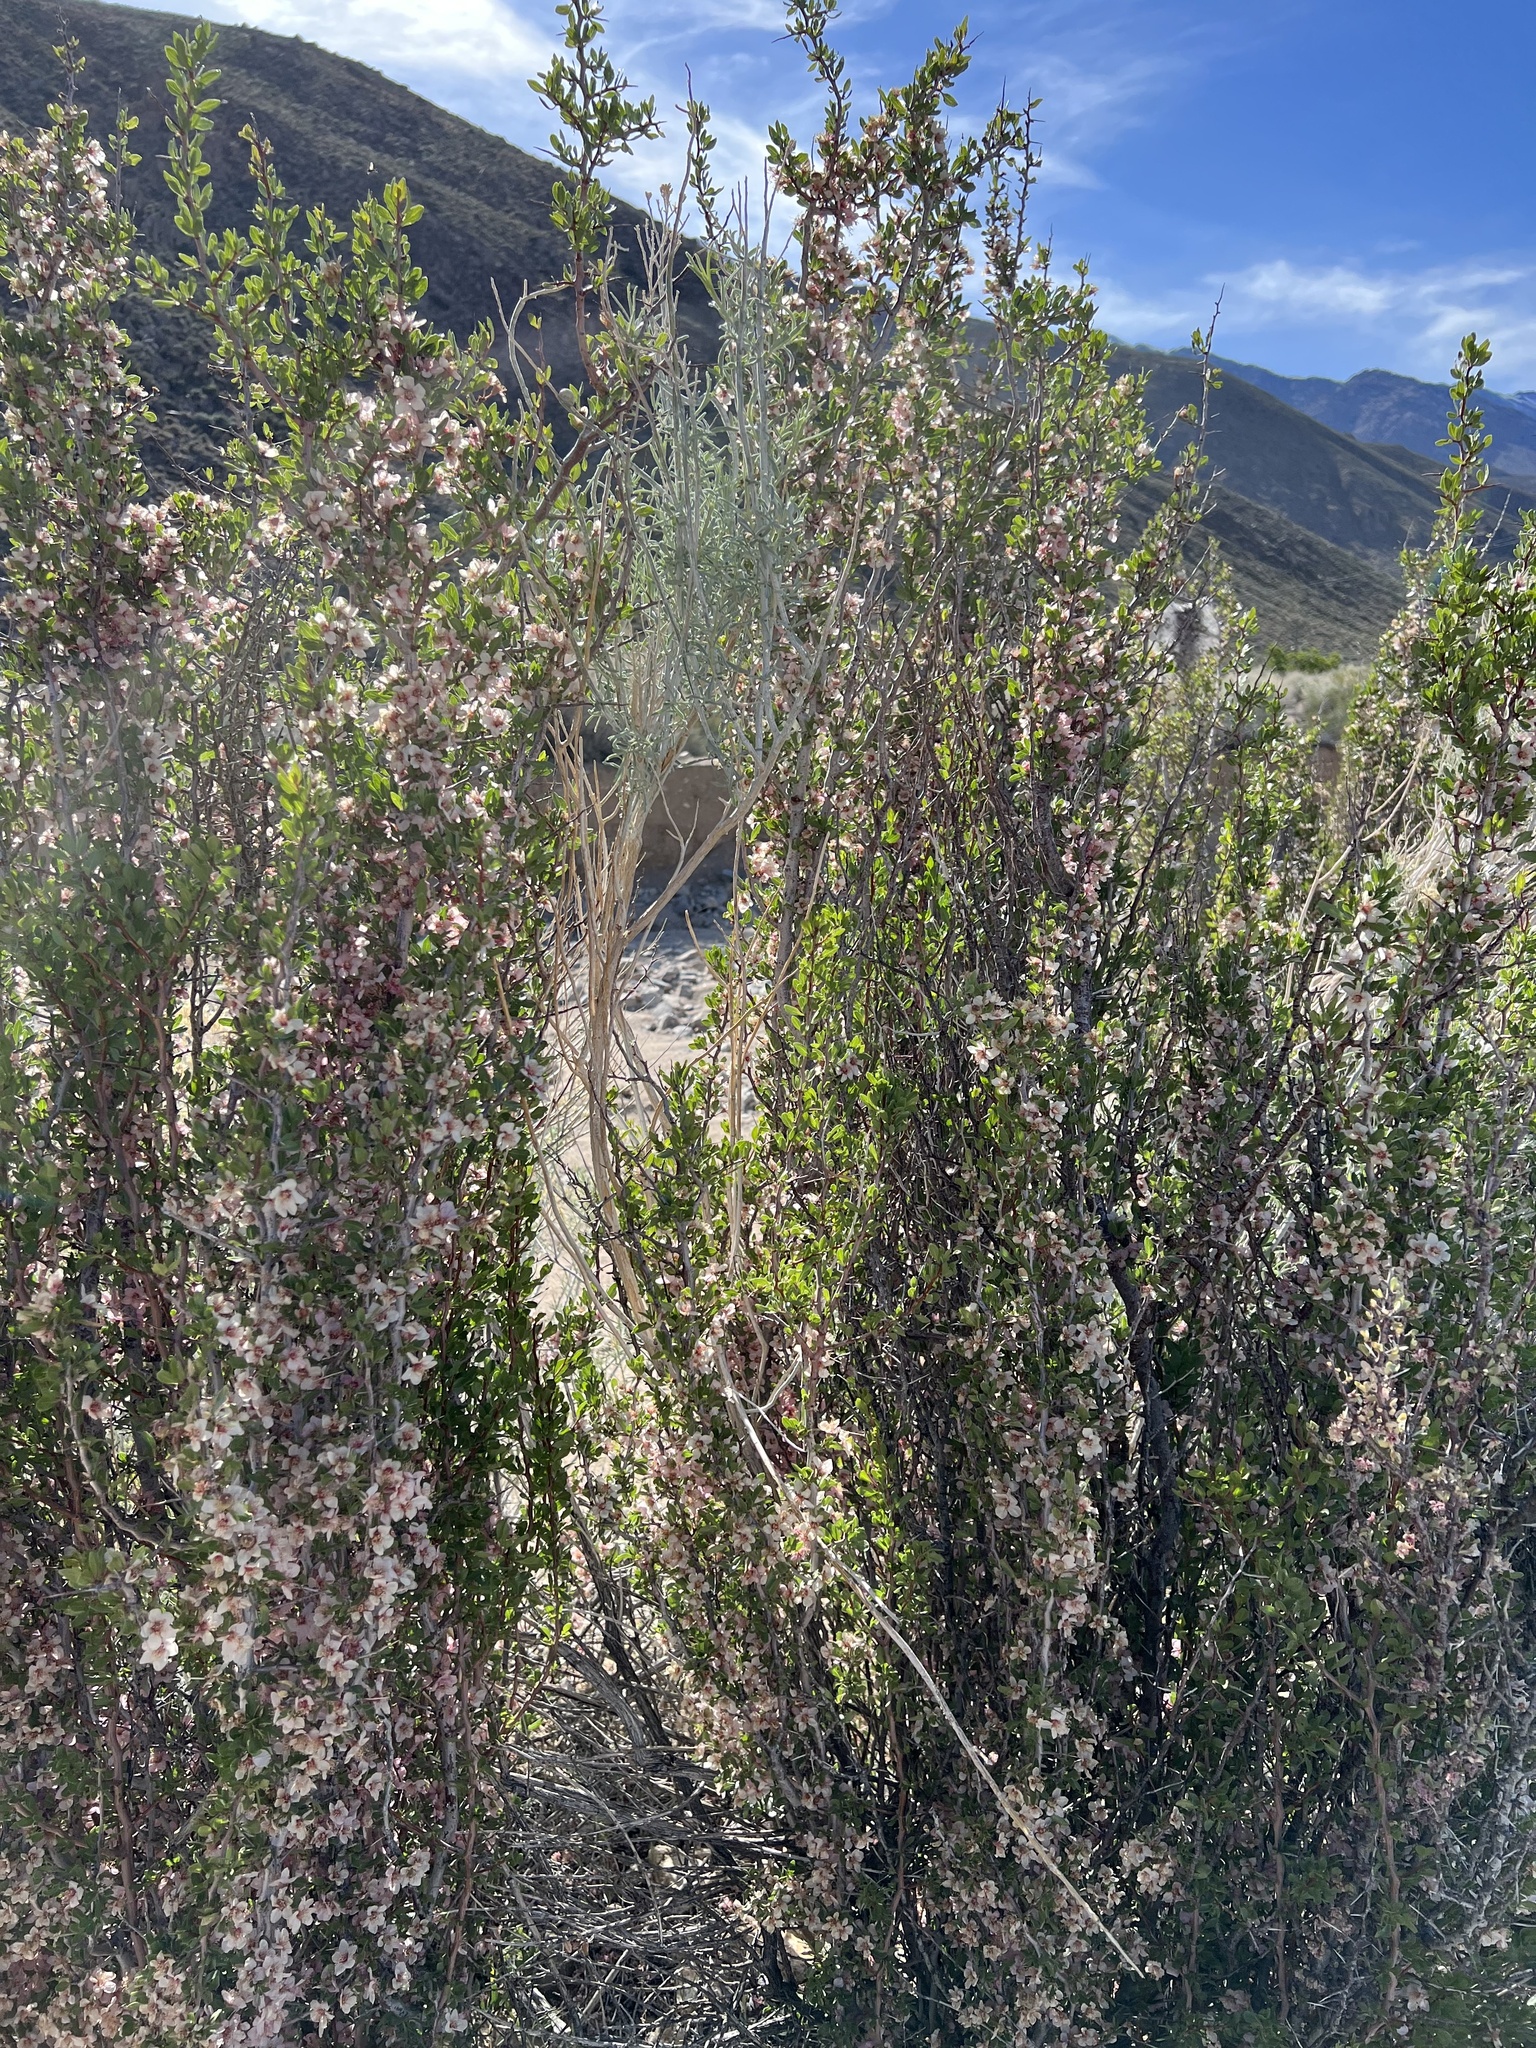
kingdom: Plantae
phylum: Tracheophyta
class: Magnoliopsida
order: Rosales
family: Rosaceae
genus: Prunus
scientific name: Prunus andersonii
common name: Desert peach
